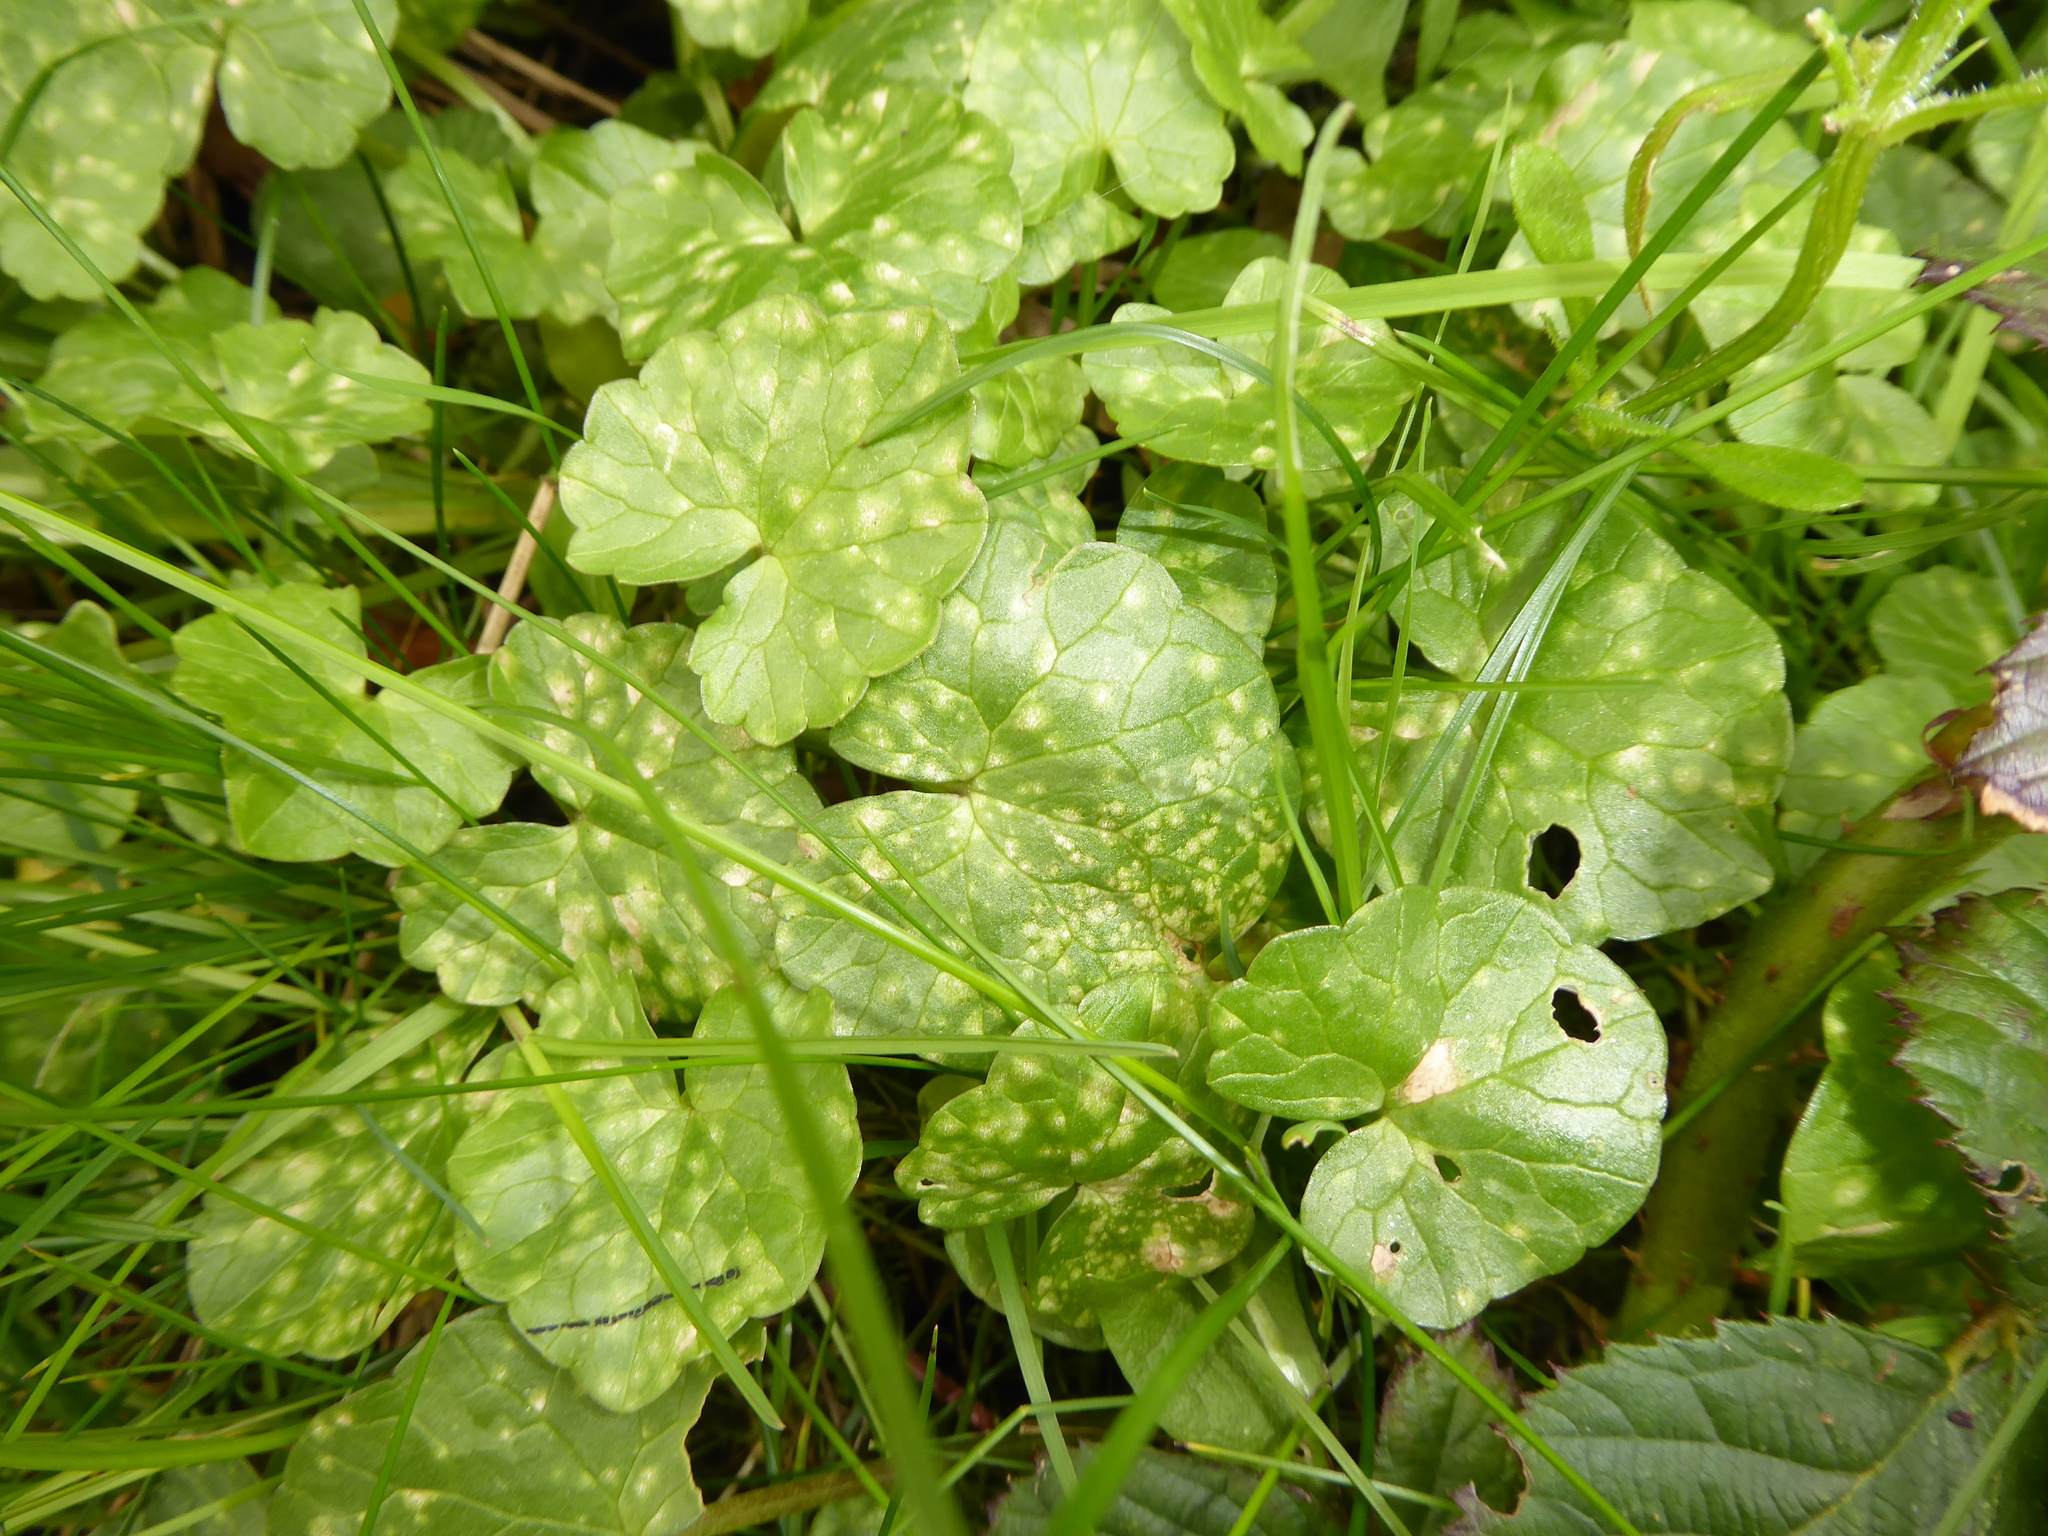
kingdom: Fungi
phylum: Basidiomycota
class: Exobasidiomycetes
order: Entylomatales
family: Entylomataceae
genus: Entyloma
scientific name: Entyloma ficariae
